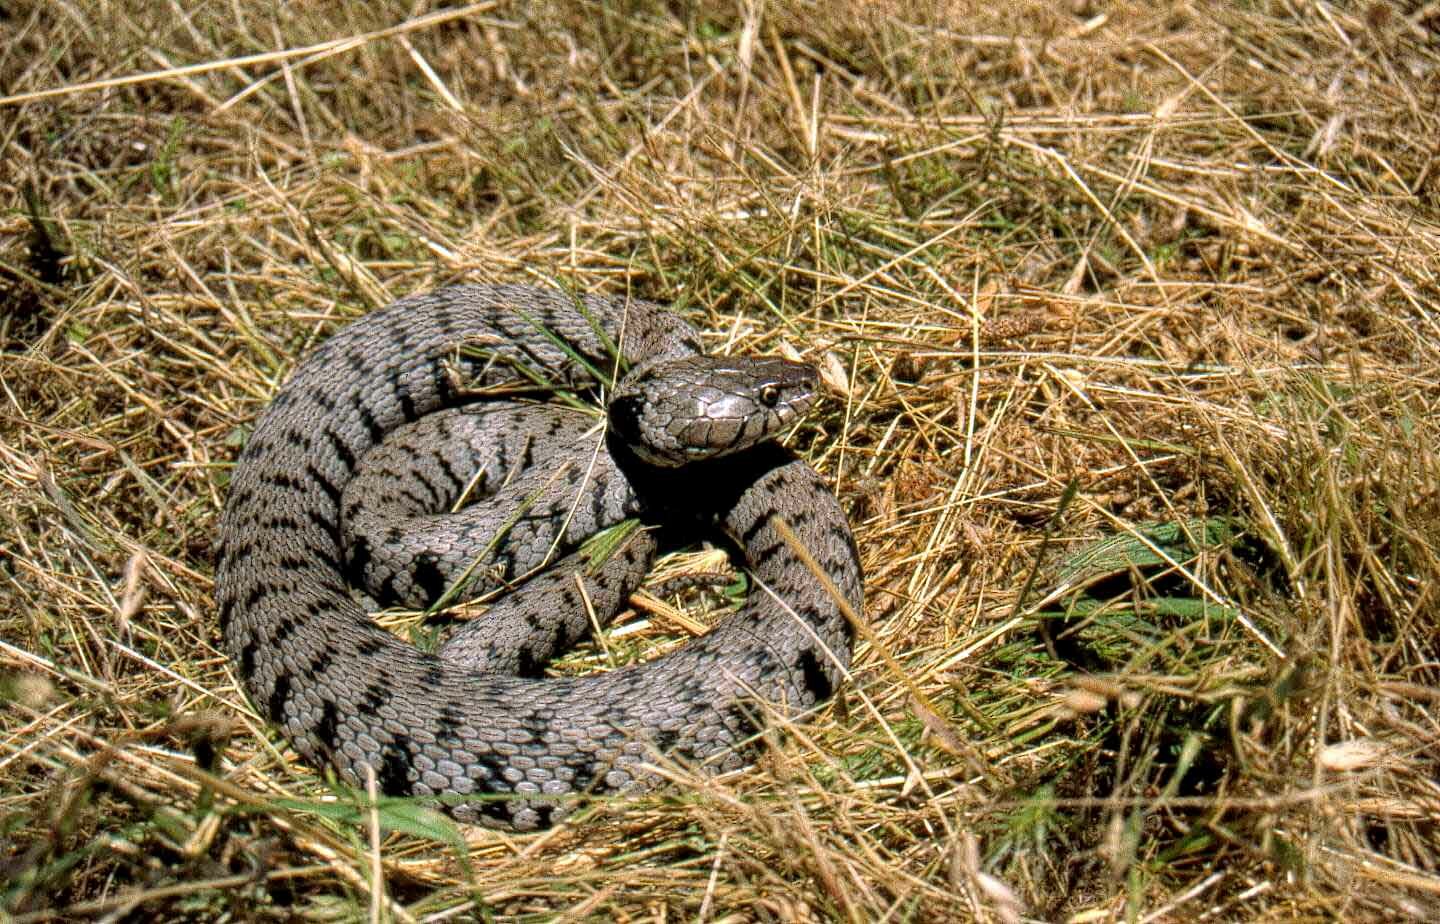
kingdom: Animalia
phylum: Chordata
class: Squamata
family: Colubridae
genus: Natrix
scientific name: Natrix helvetica
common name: Banded grass snake
